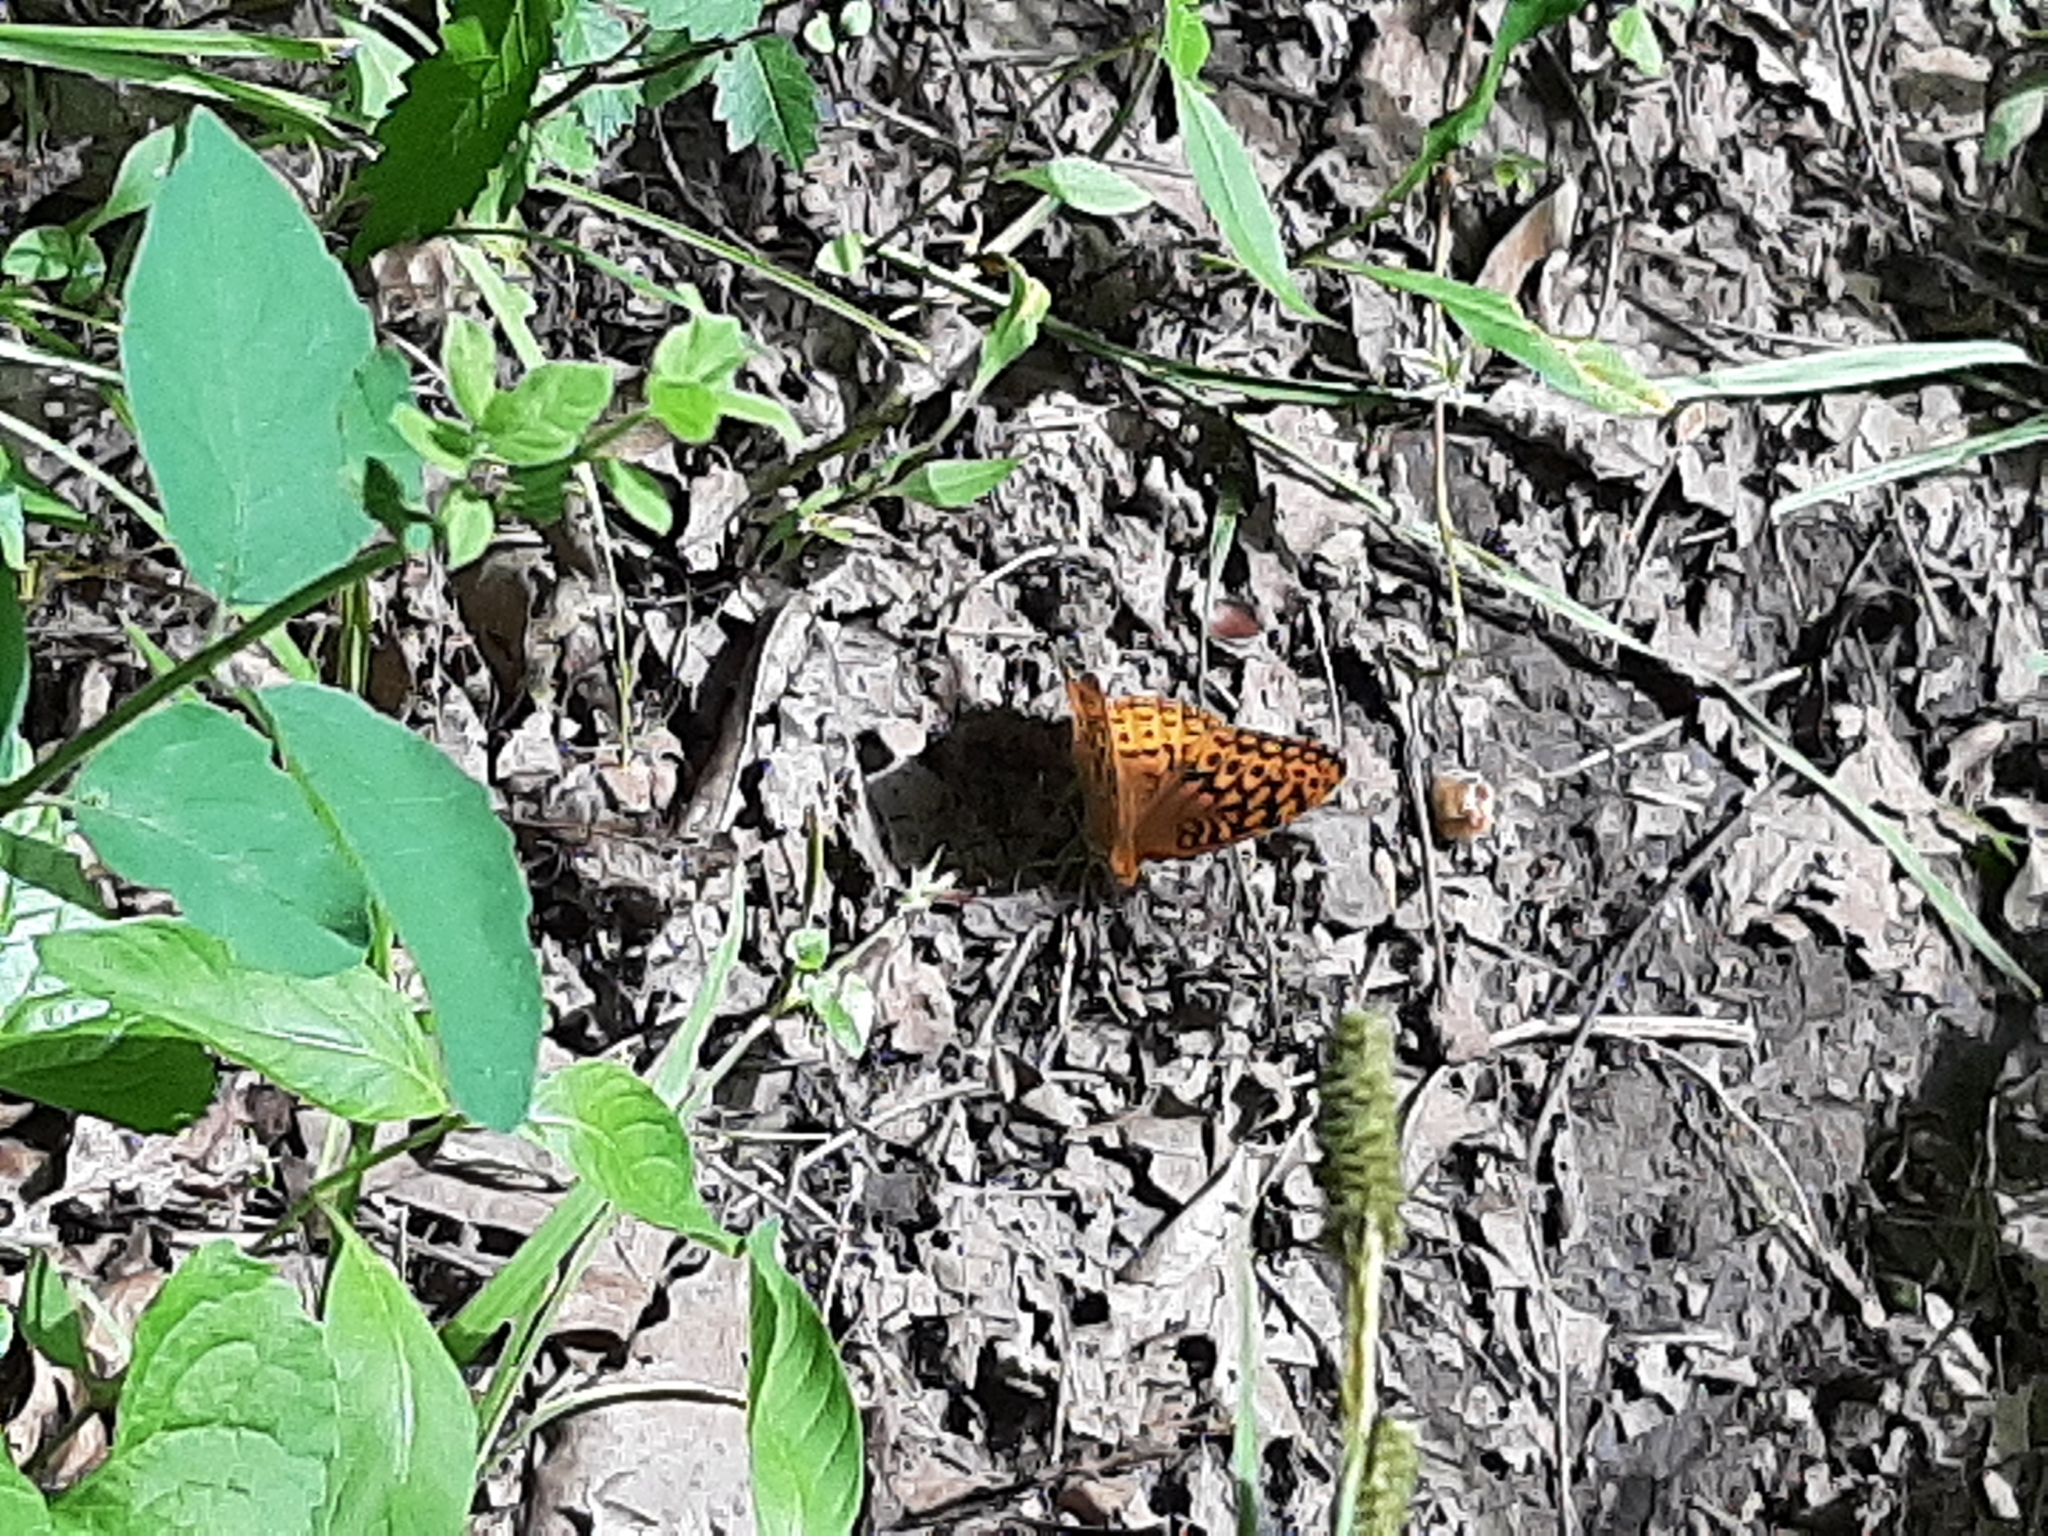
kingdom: Animalia
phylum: Arthropoda
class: Insecta
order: Lepidoptera
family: Nymphalidae
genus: Speyeria
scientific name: Speyeria cybele
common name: Great spangled fritillary
